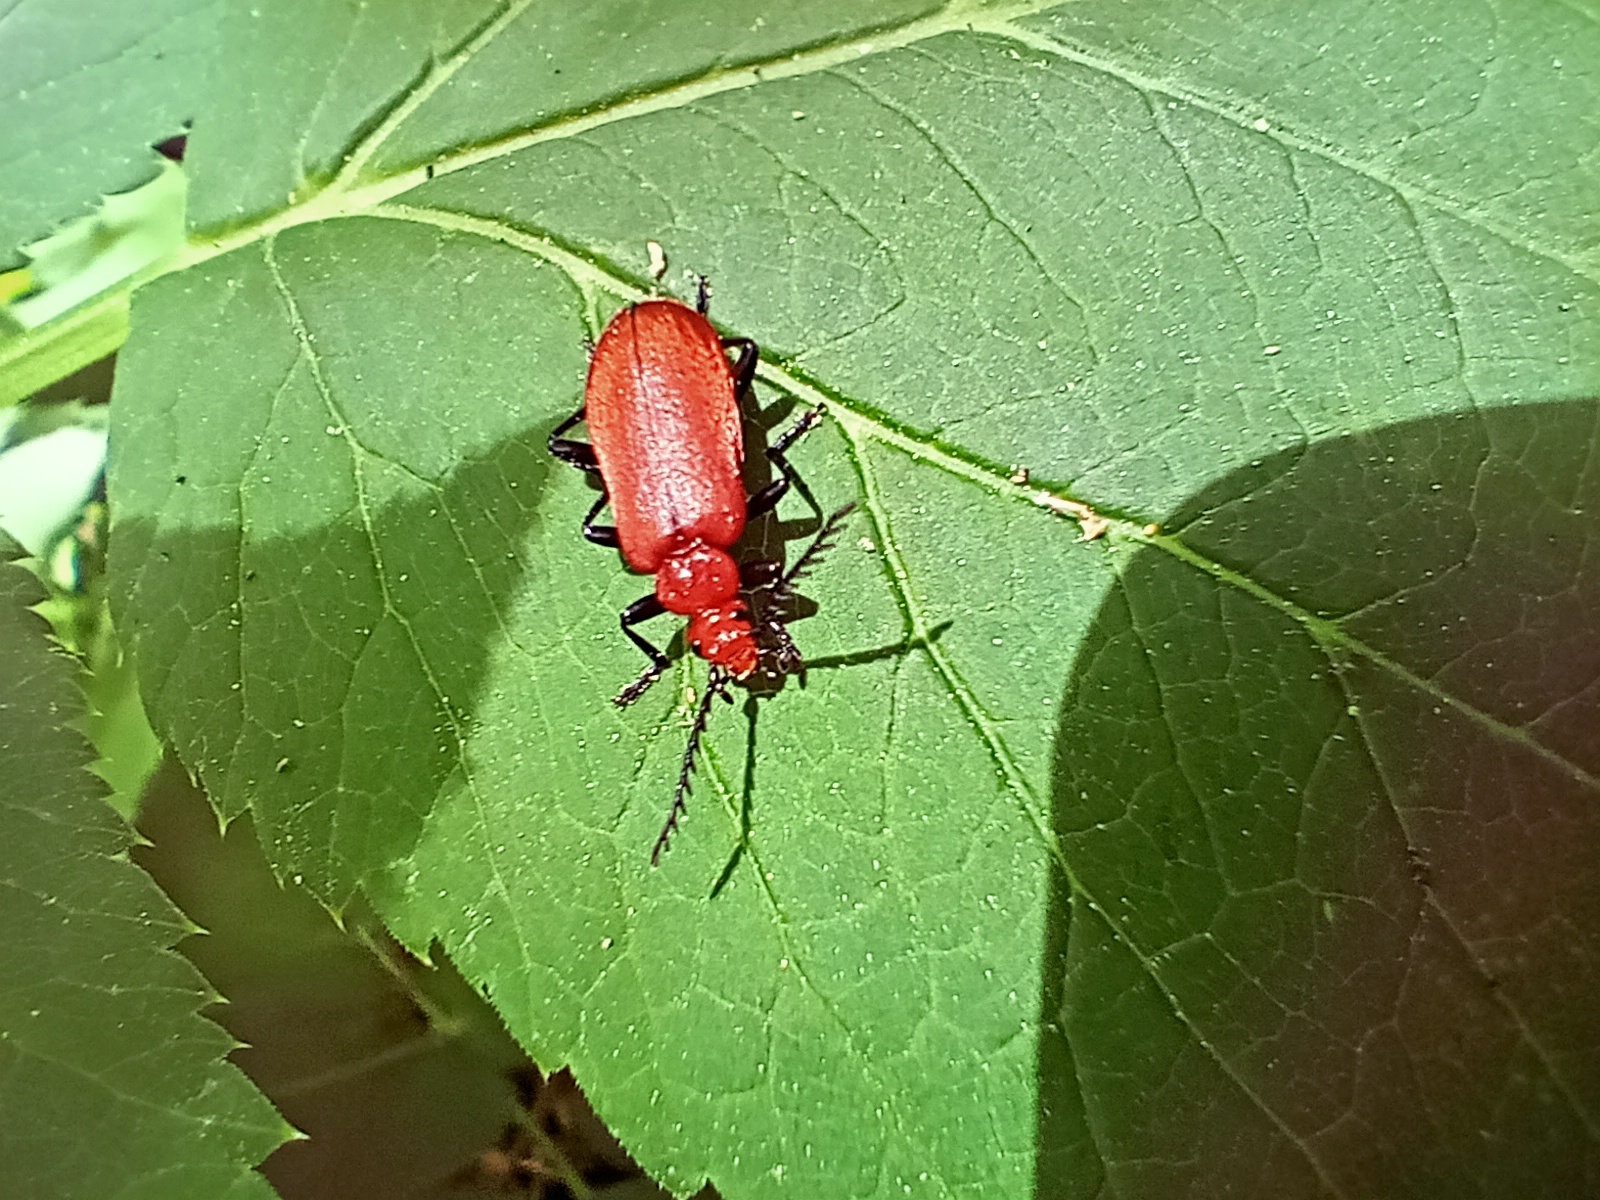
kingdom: Animalia
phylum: Arthropoda
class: Insecta
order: Coleoptera
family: Pyrochroidae
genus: Pyrochroa
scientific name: Pyrochroa serraticornis
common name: Red-headed cardinal beetle
